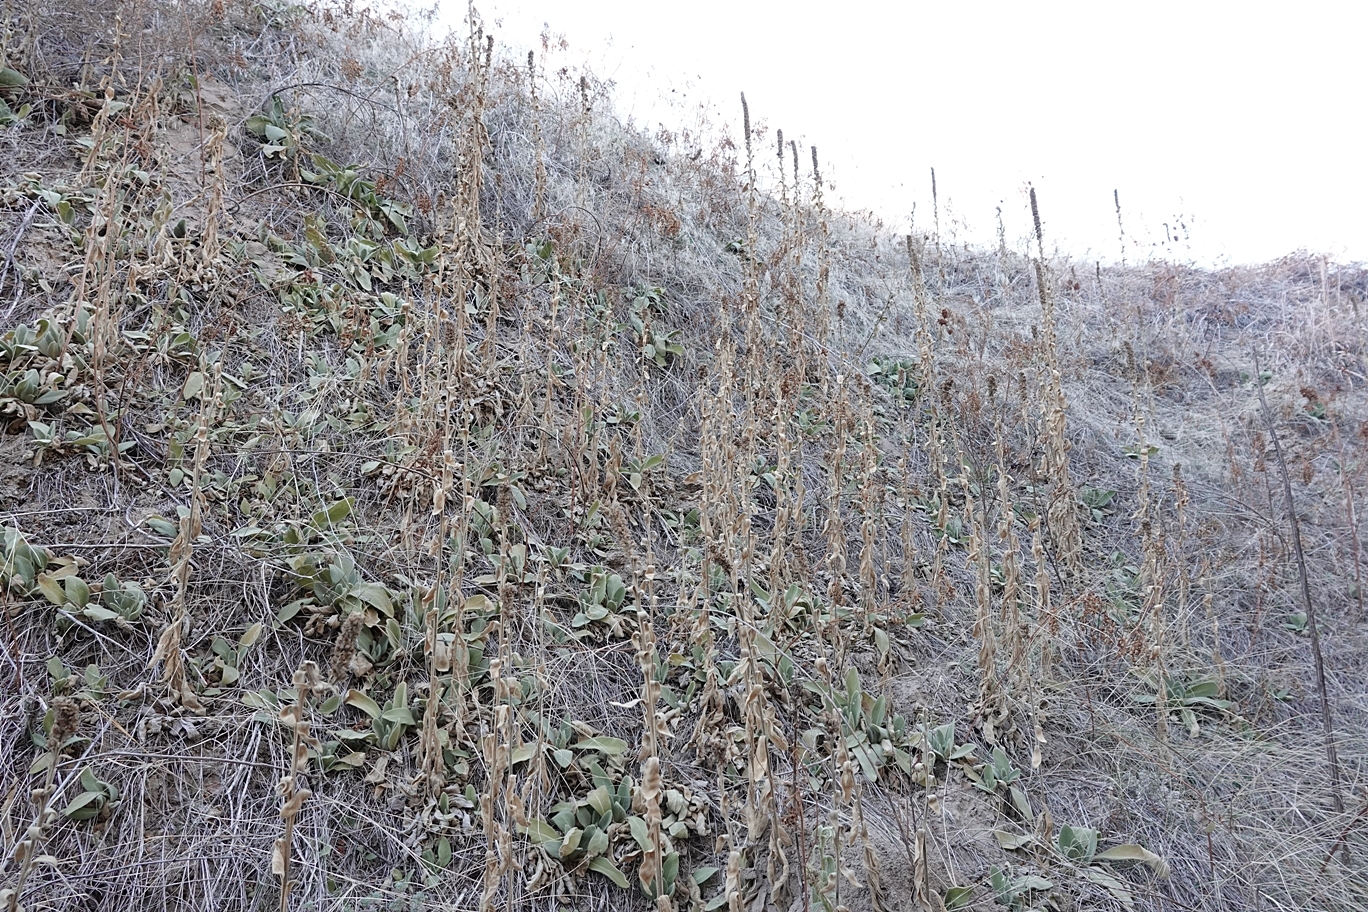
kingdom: Plantae
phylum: Tracheophyta
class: Magnoliopsida
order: Lamiales
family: Scrophulariaceae
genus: Verbascum
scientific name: Verbascum thapsus
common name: Common mullein
